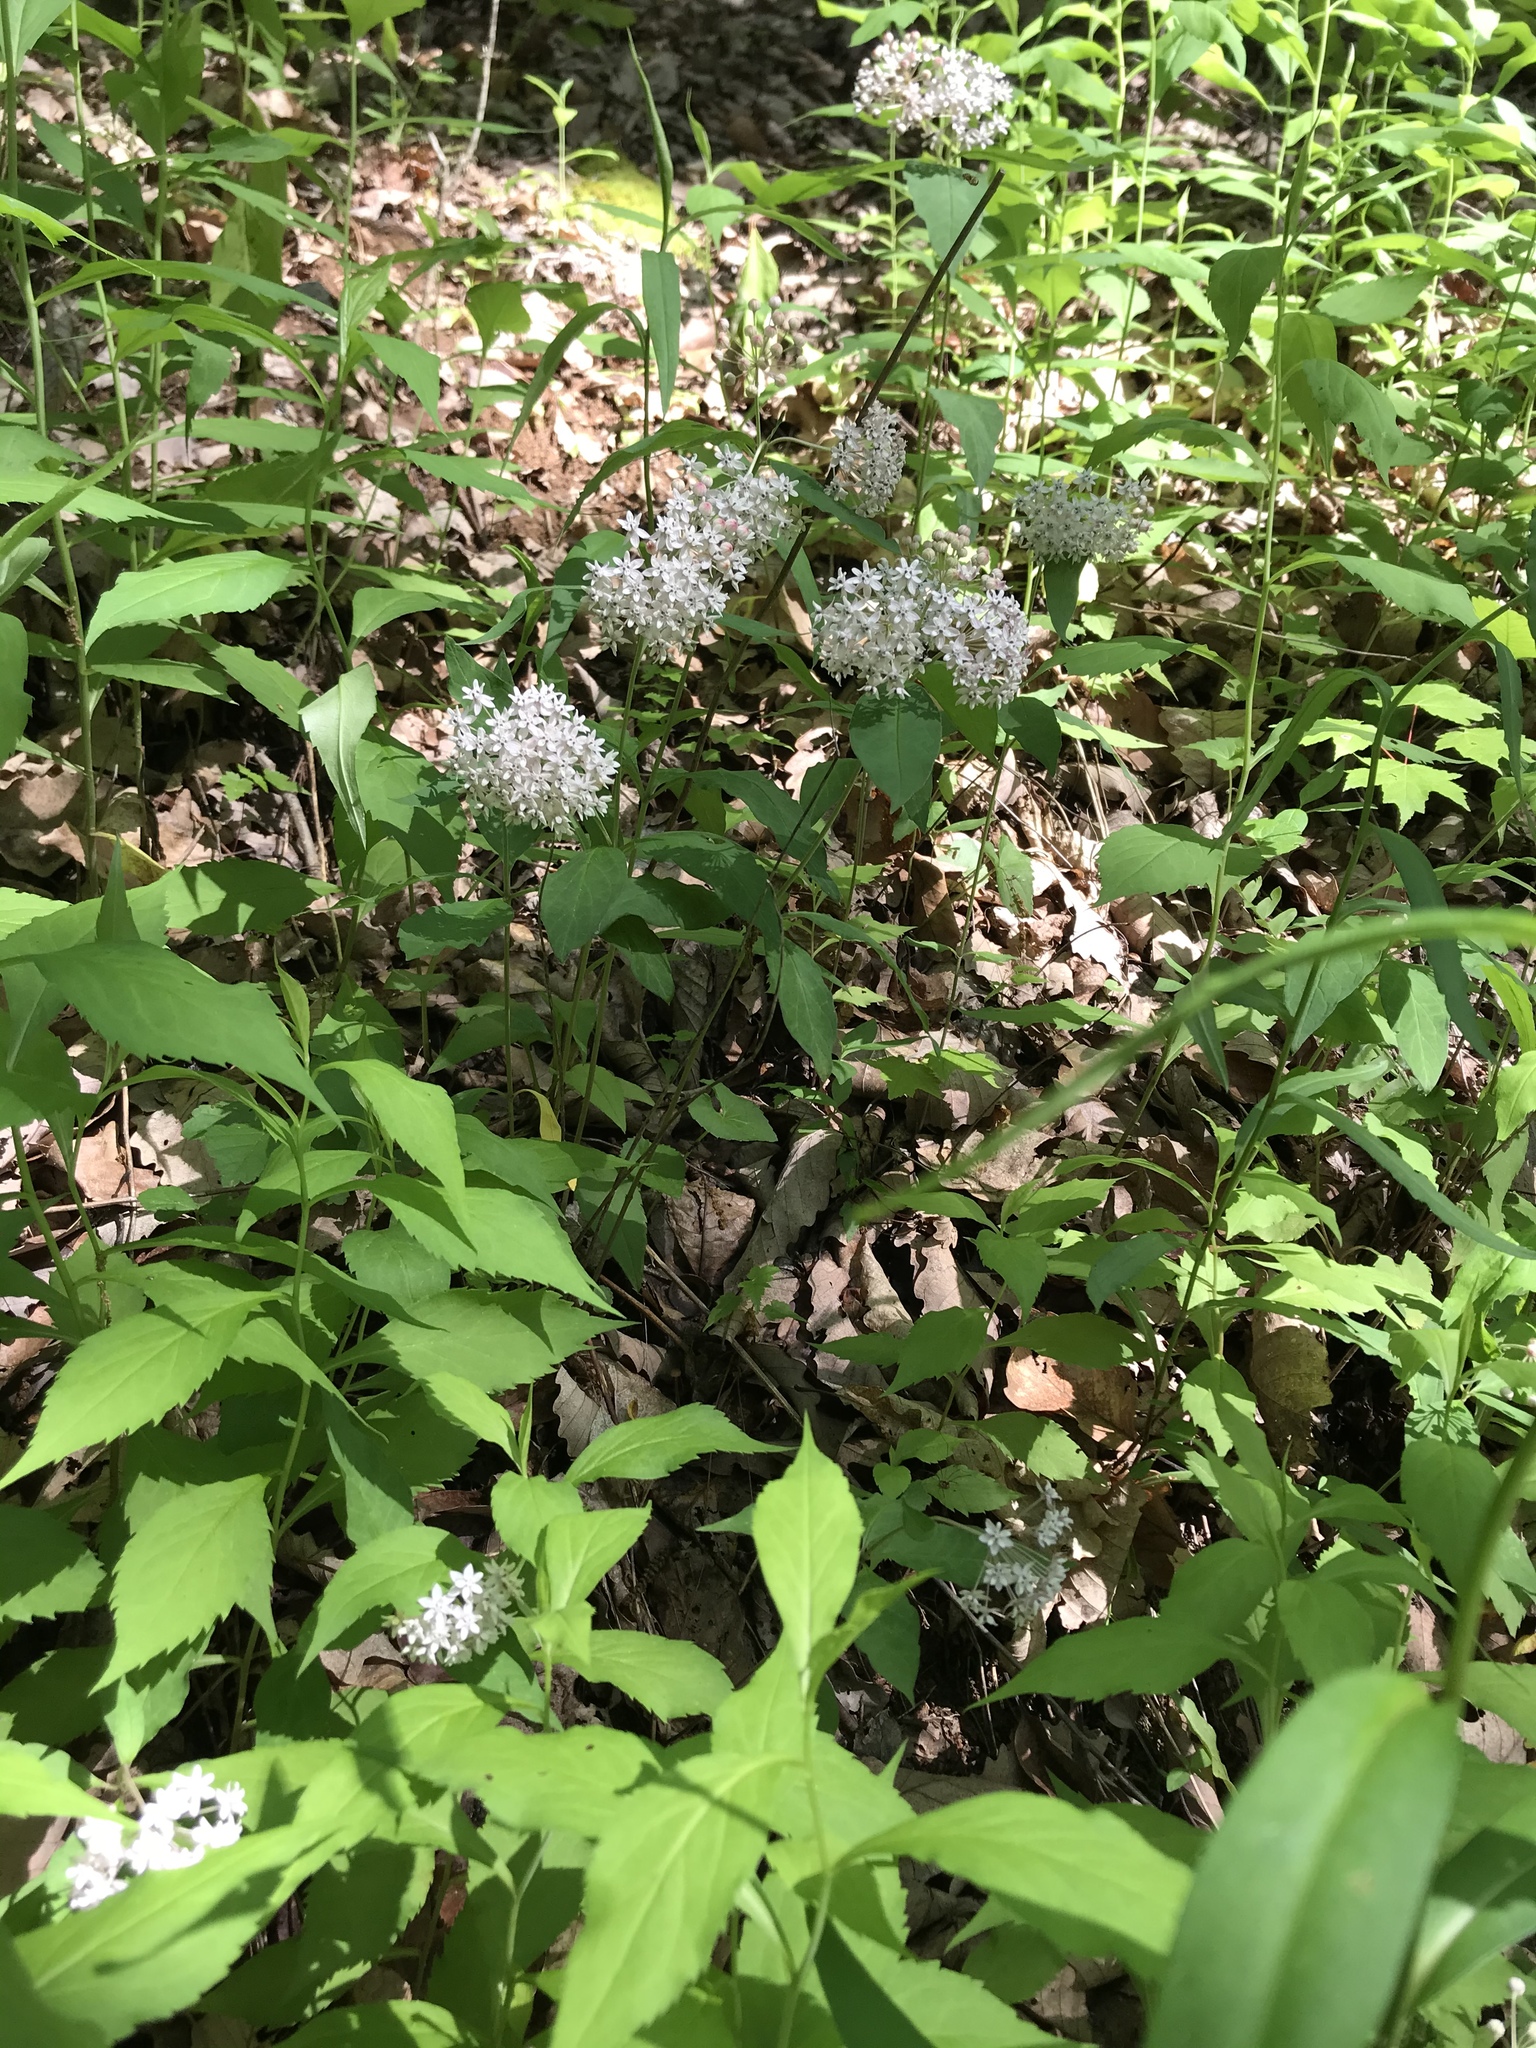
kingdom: Plantae
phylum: Tracheophyta
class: Magnoliopsida
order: Gentianales
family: Apocynaceae
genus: Asclepias
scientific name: Asclepias quadrifolia
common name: Whorled milkweed
